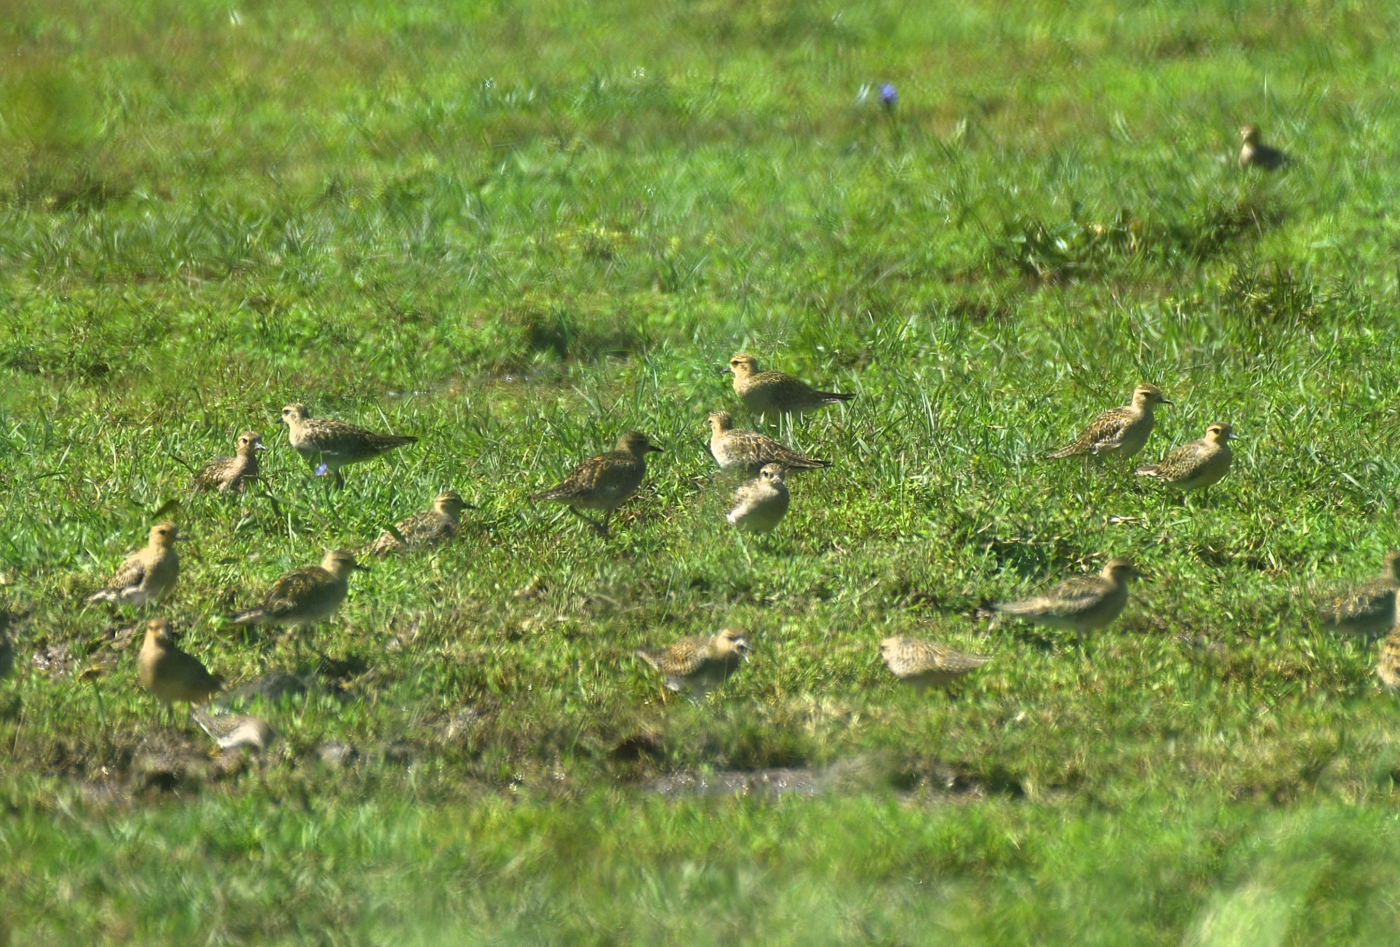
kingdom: Animalia
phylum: Chordata
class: Aves
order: Charadriiformes
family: Charadriidae
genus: Pluvialis
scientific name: Pluvialis fulva
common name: Pacific golden plover
